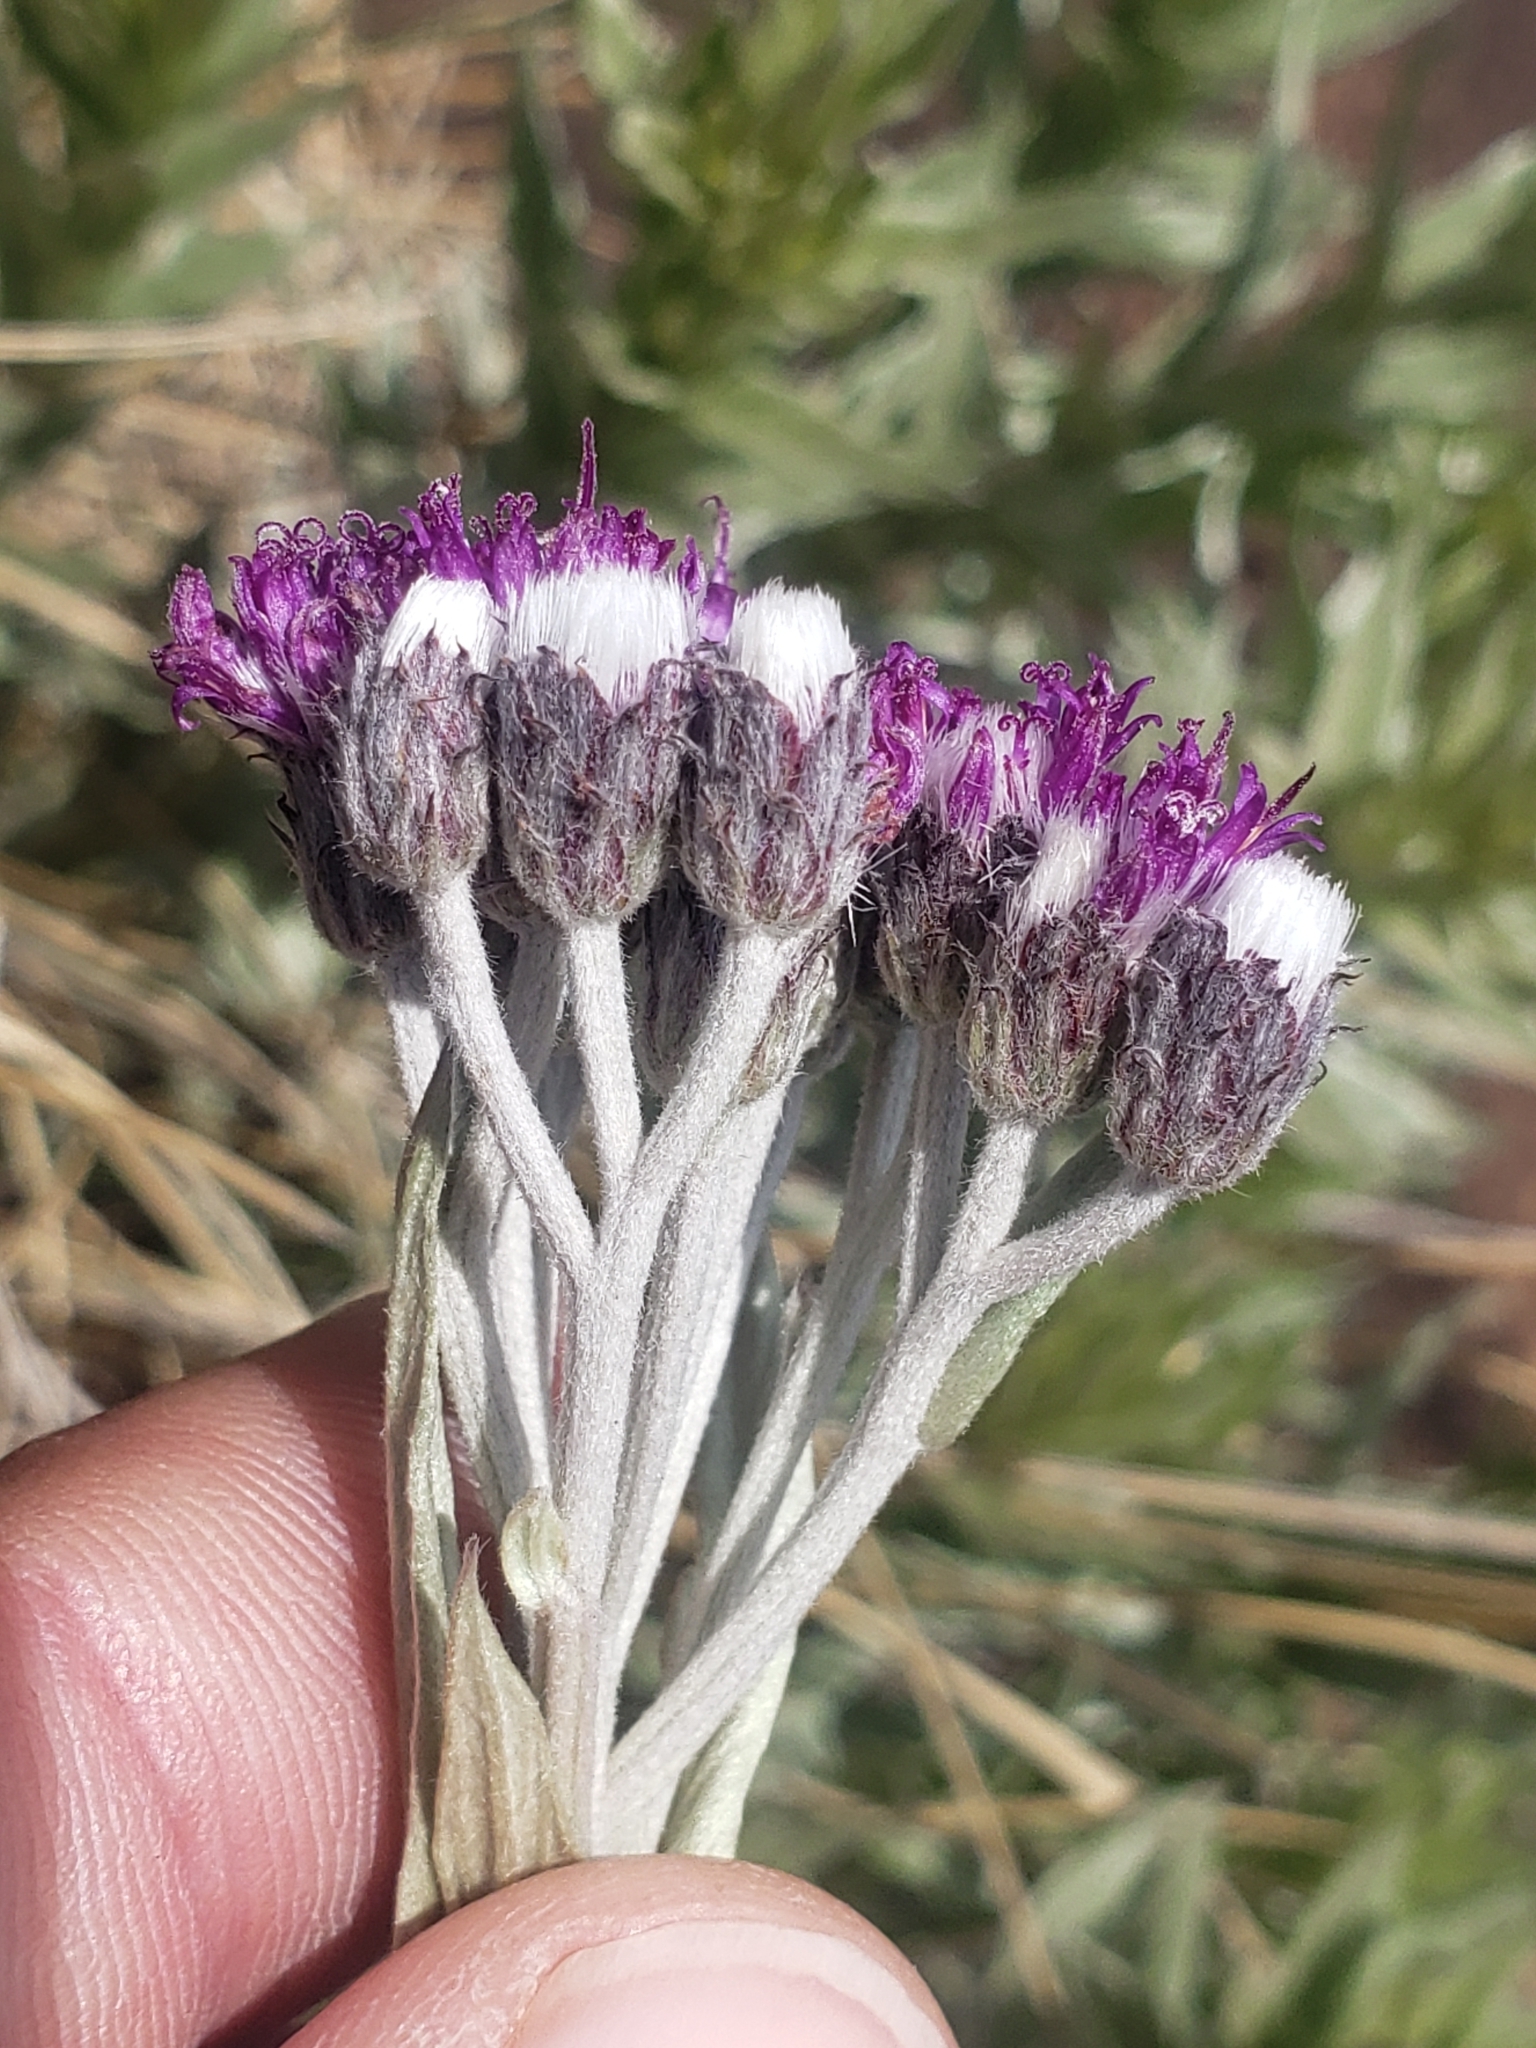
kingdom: Plantae
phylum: Tracheophyta
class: Magnoliopsida
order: Asterales
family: Asteraceae
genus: Hilliardiella
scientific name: Hilliardiella aristata
